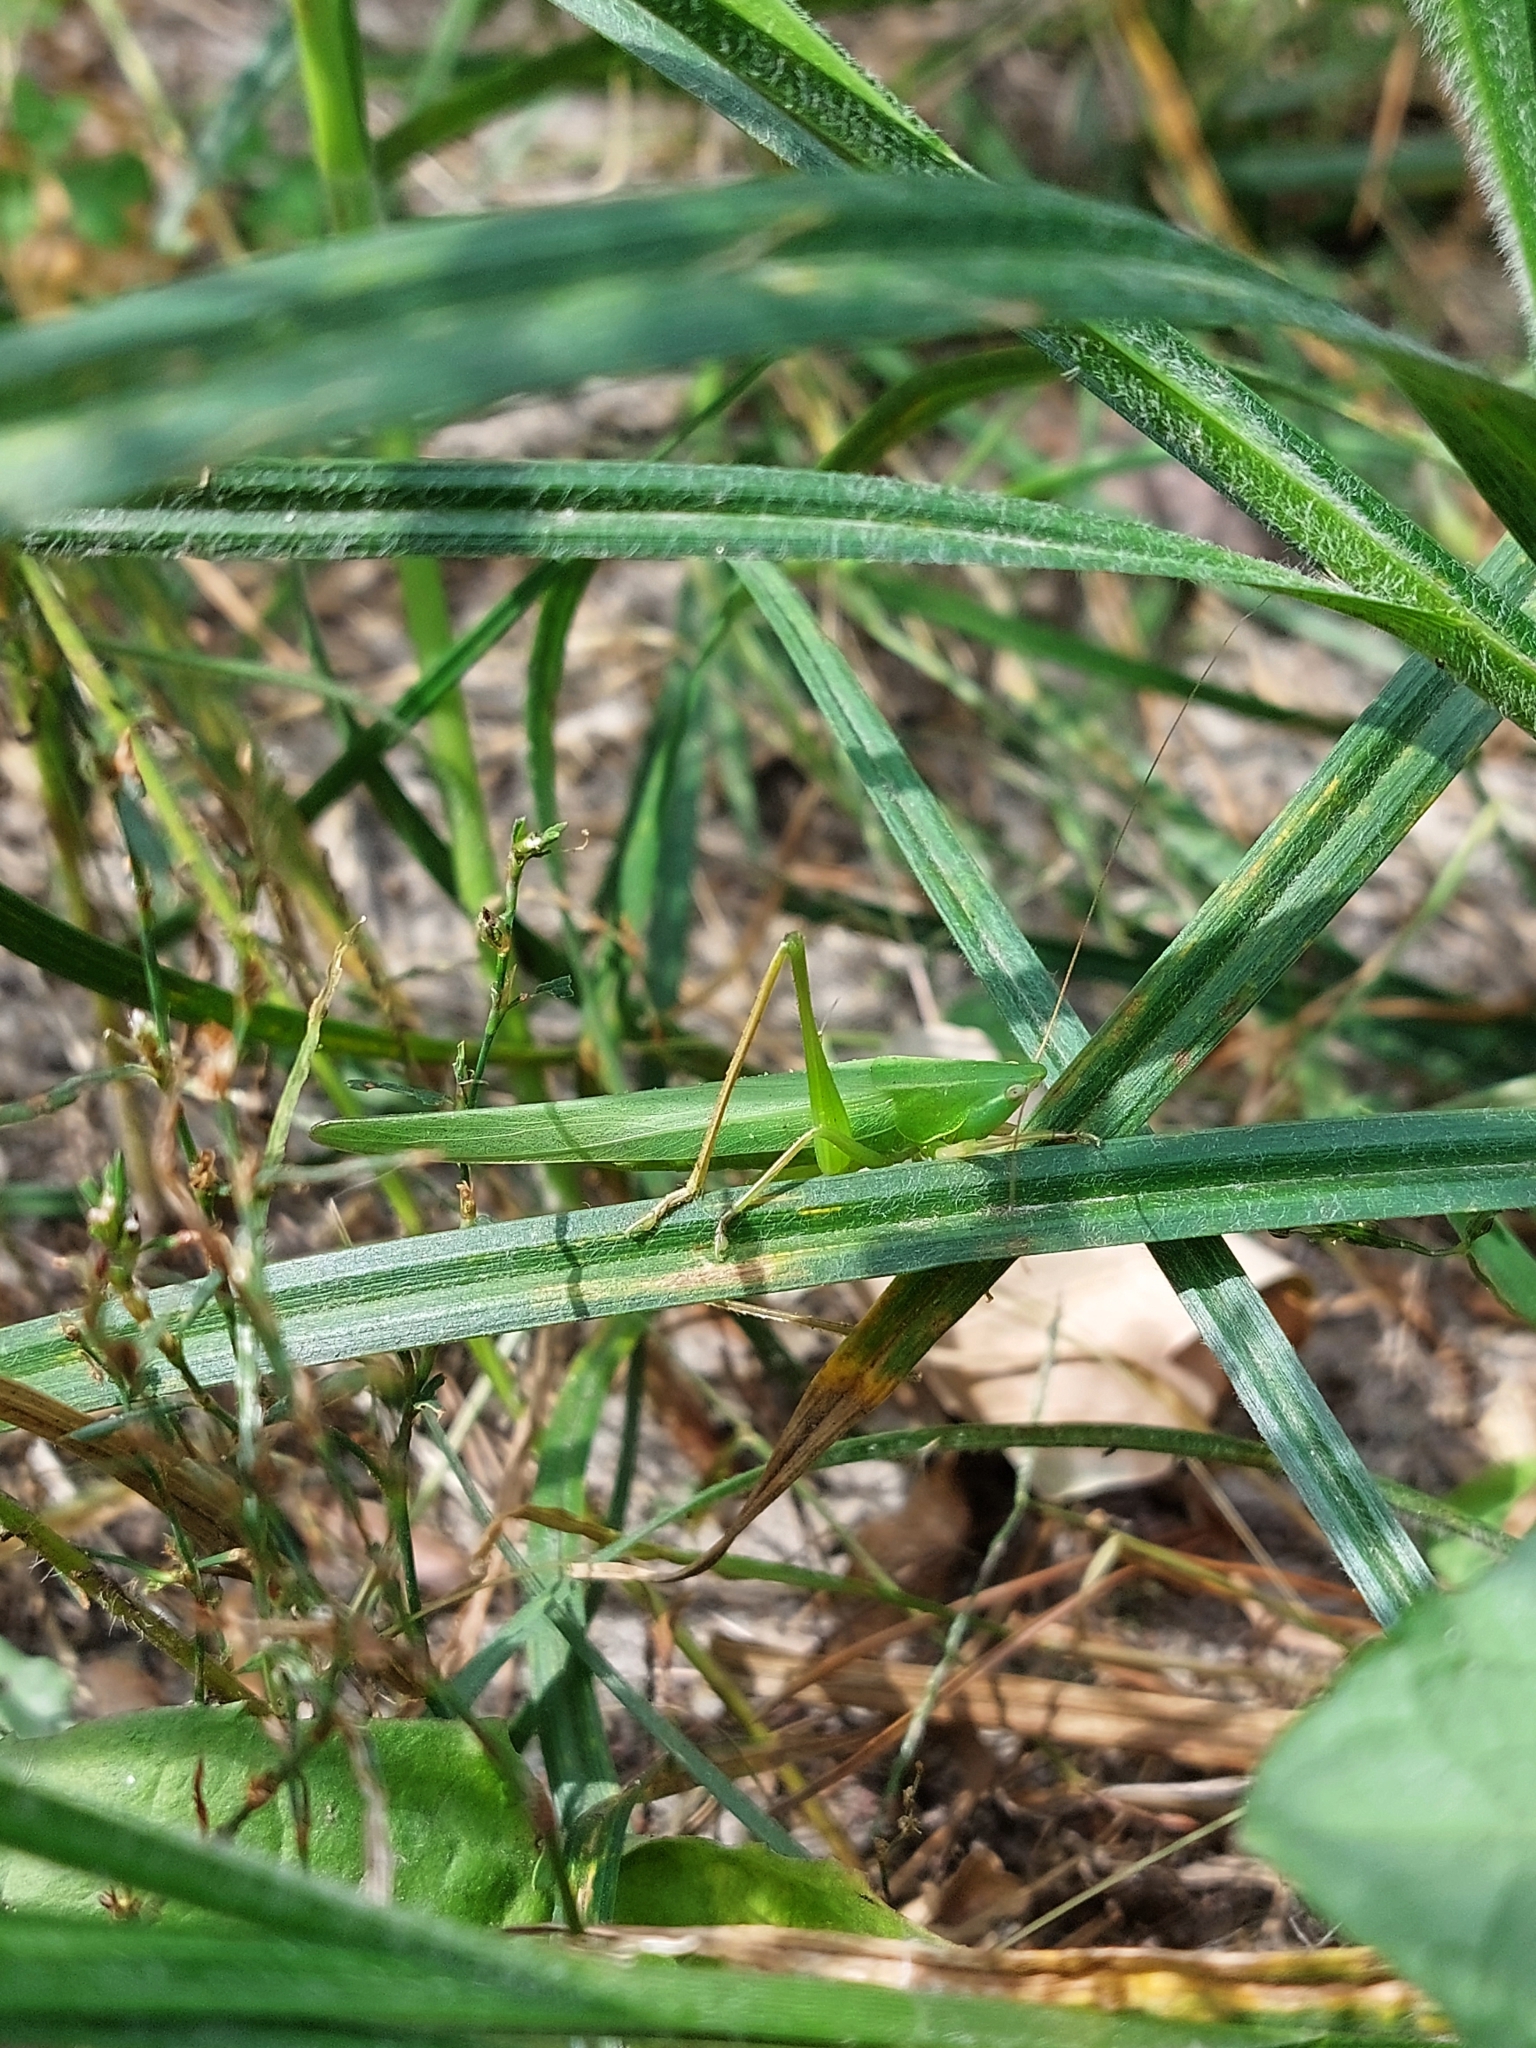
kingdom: Animalia
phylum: Arthropoda
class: Insecta
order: Orthoptera
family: Tettigoniidae
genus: Ruspolia
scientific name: Ruspolia nitidula
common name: Large conehead
